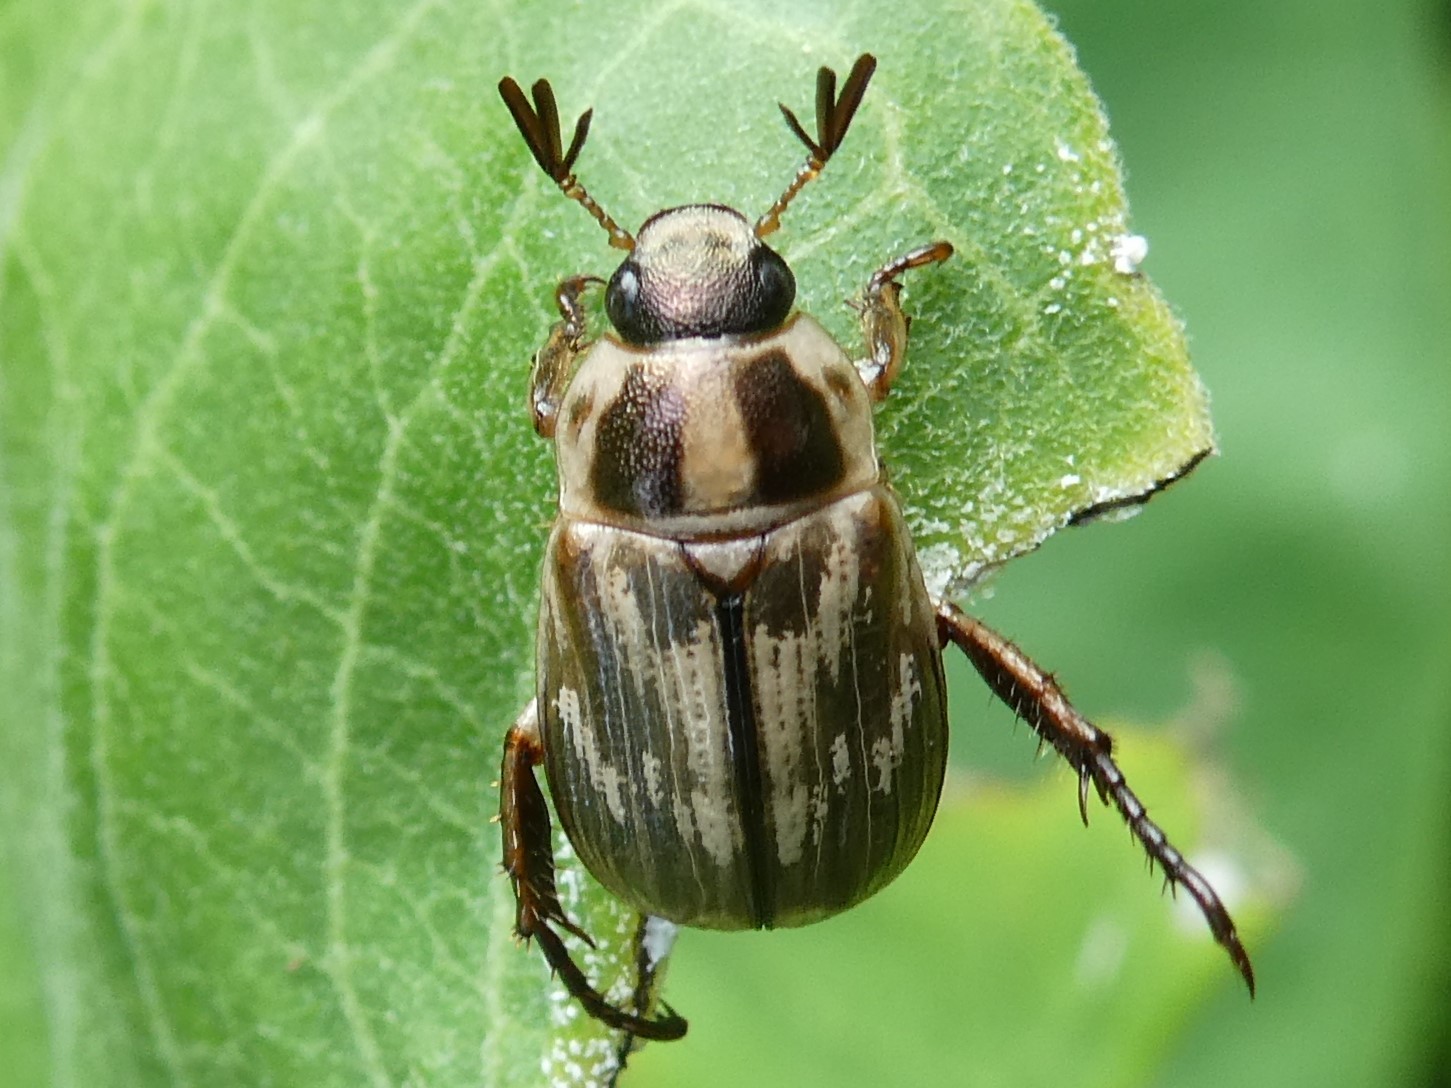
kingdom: Animalia
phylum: Arthropoda
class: Insecta
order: Coleoptera
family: Scarabaeidae
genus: Exomala
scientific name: Exomala orientalis
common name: Oriental beetle
